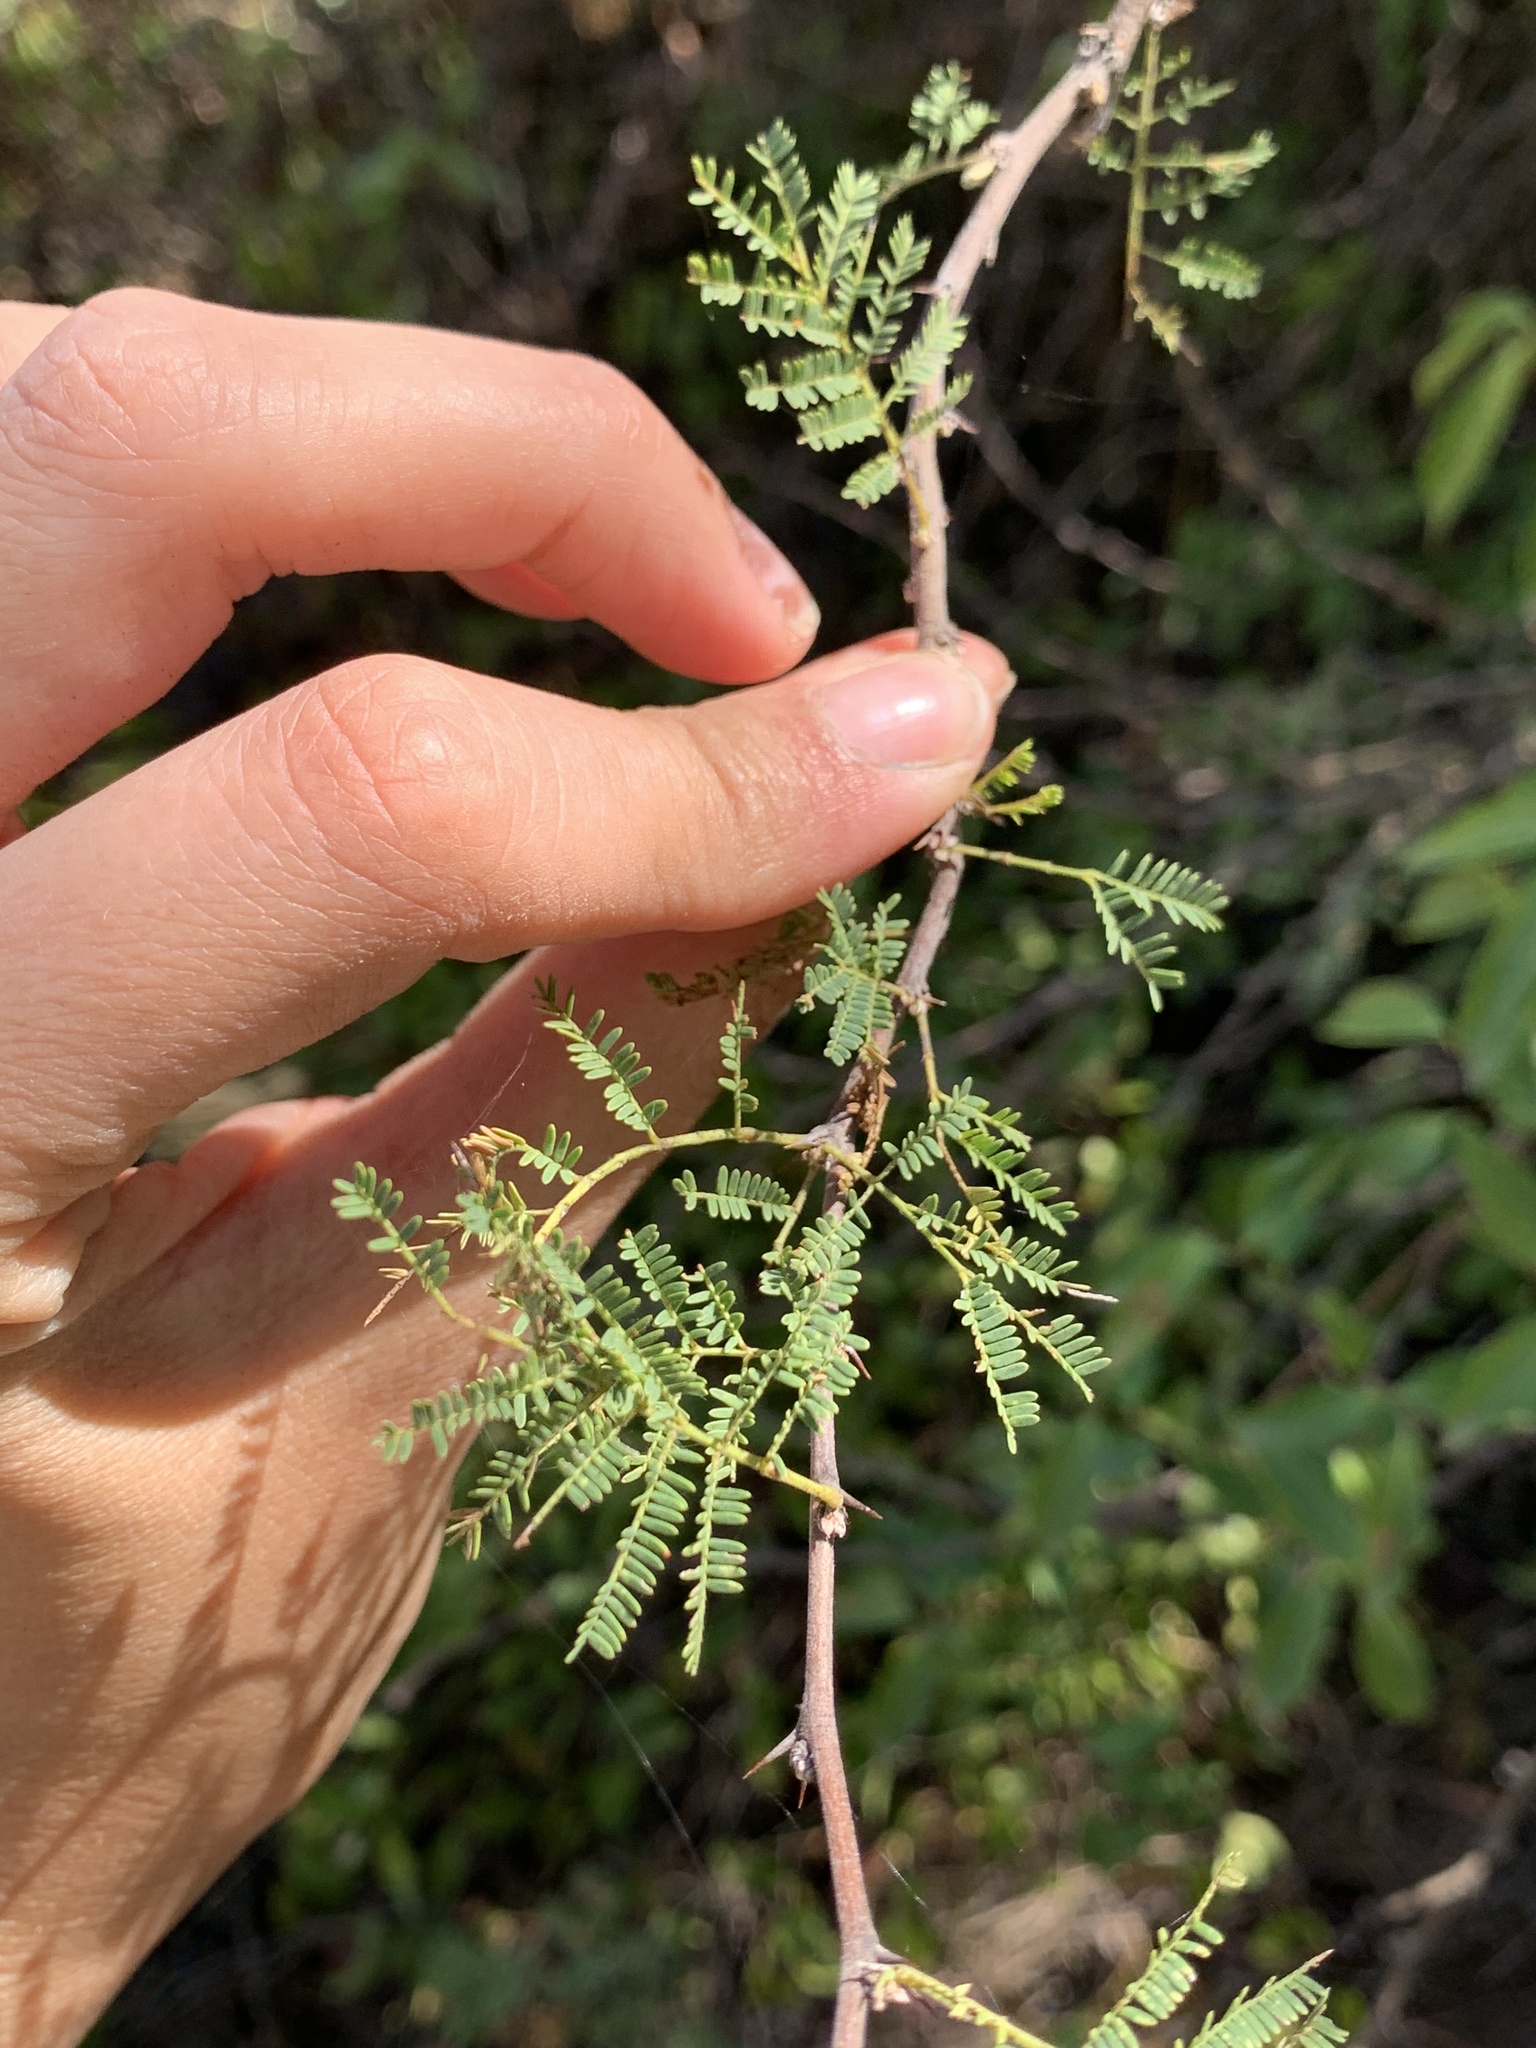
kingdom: Plantae
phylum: Tracheophyta
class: Magnoliopsida
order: Fabales
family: Fabaceae
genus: Vachellia
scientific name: Vachellia caven
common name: Roman cassie
